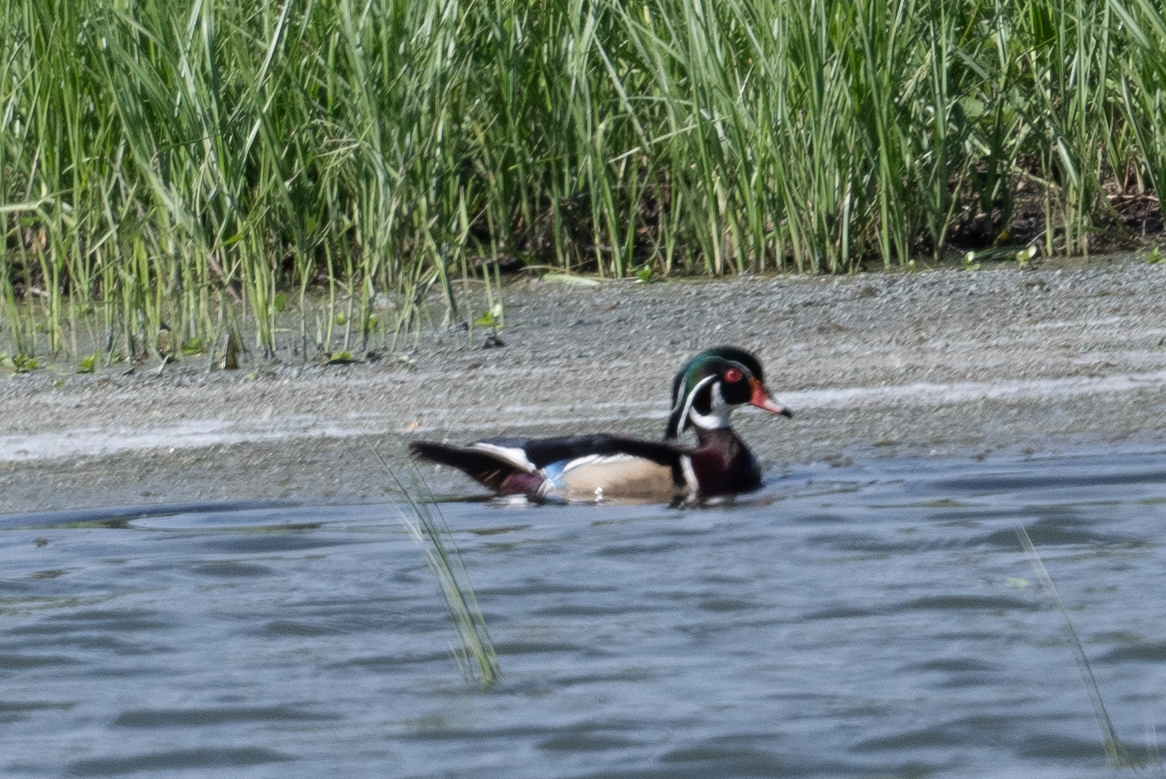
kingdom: Animalia
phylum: Chordata
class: Aves
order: Anseriformes
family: Anatidae
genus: Aix
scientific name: Aix sponsa
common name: Wood duck
